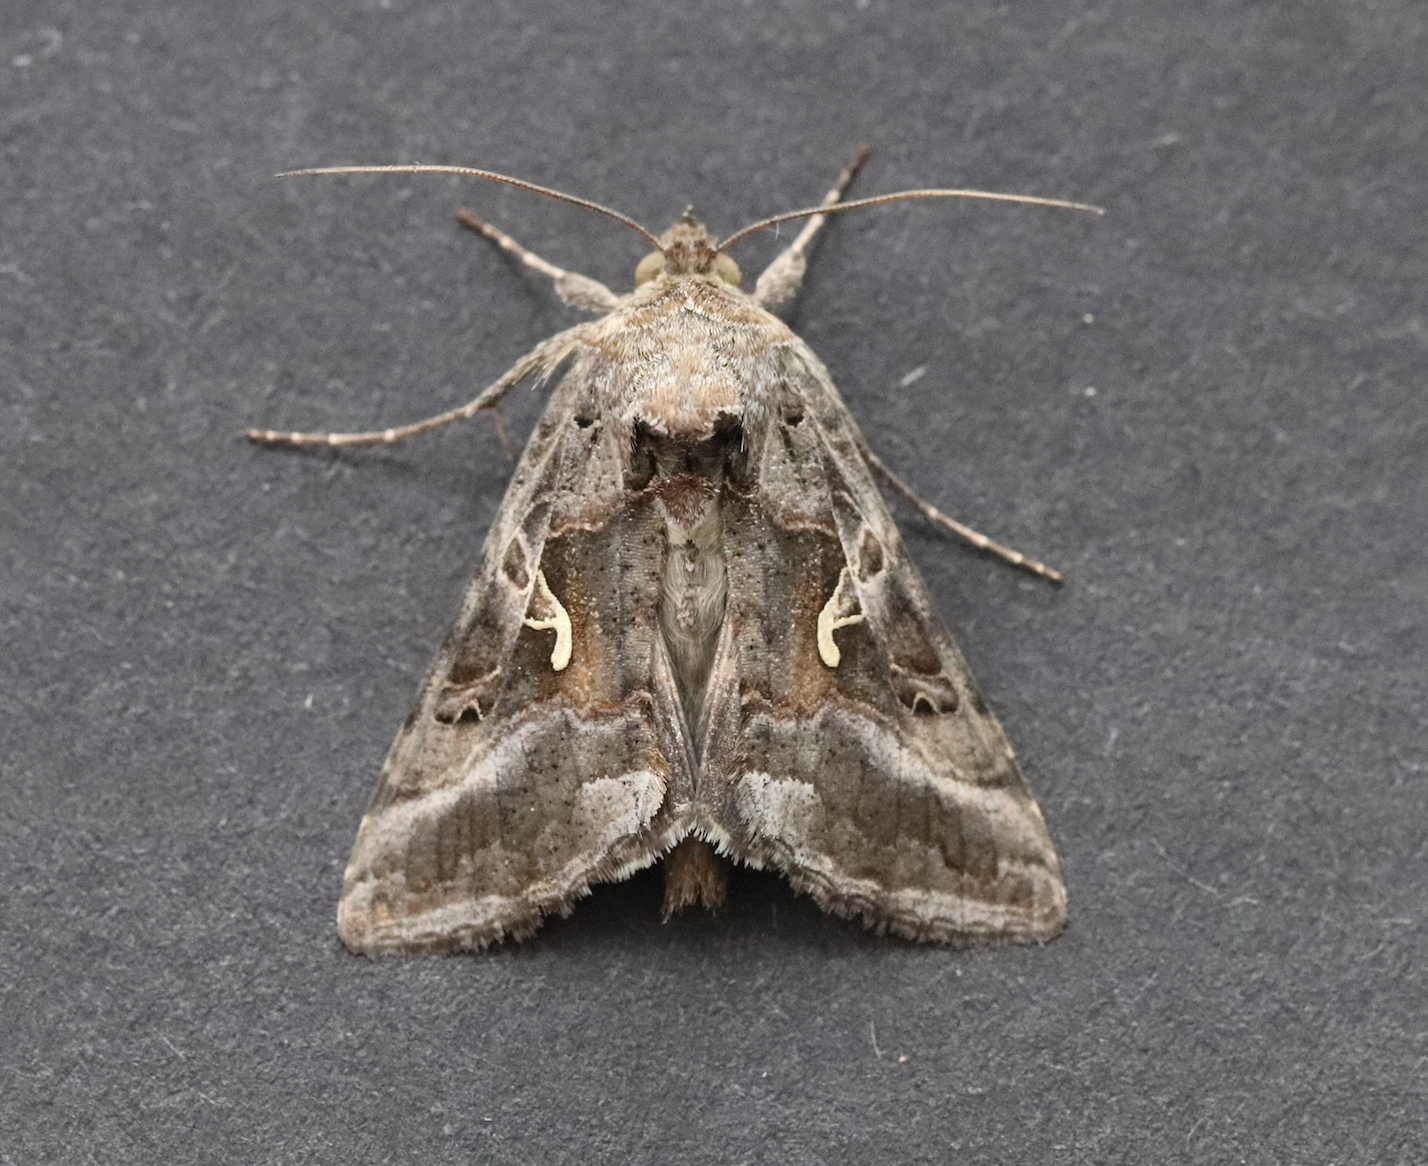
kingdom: Animalia
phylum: Arthropoda
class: Insecta
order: Lepidoptera
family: Noctuidae
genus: Autographa
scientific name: Autographa gamma
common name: Silver y
